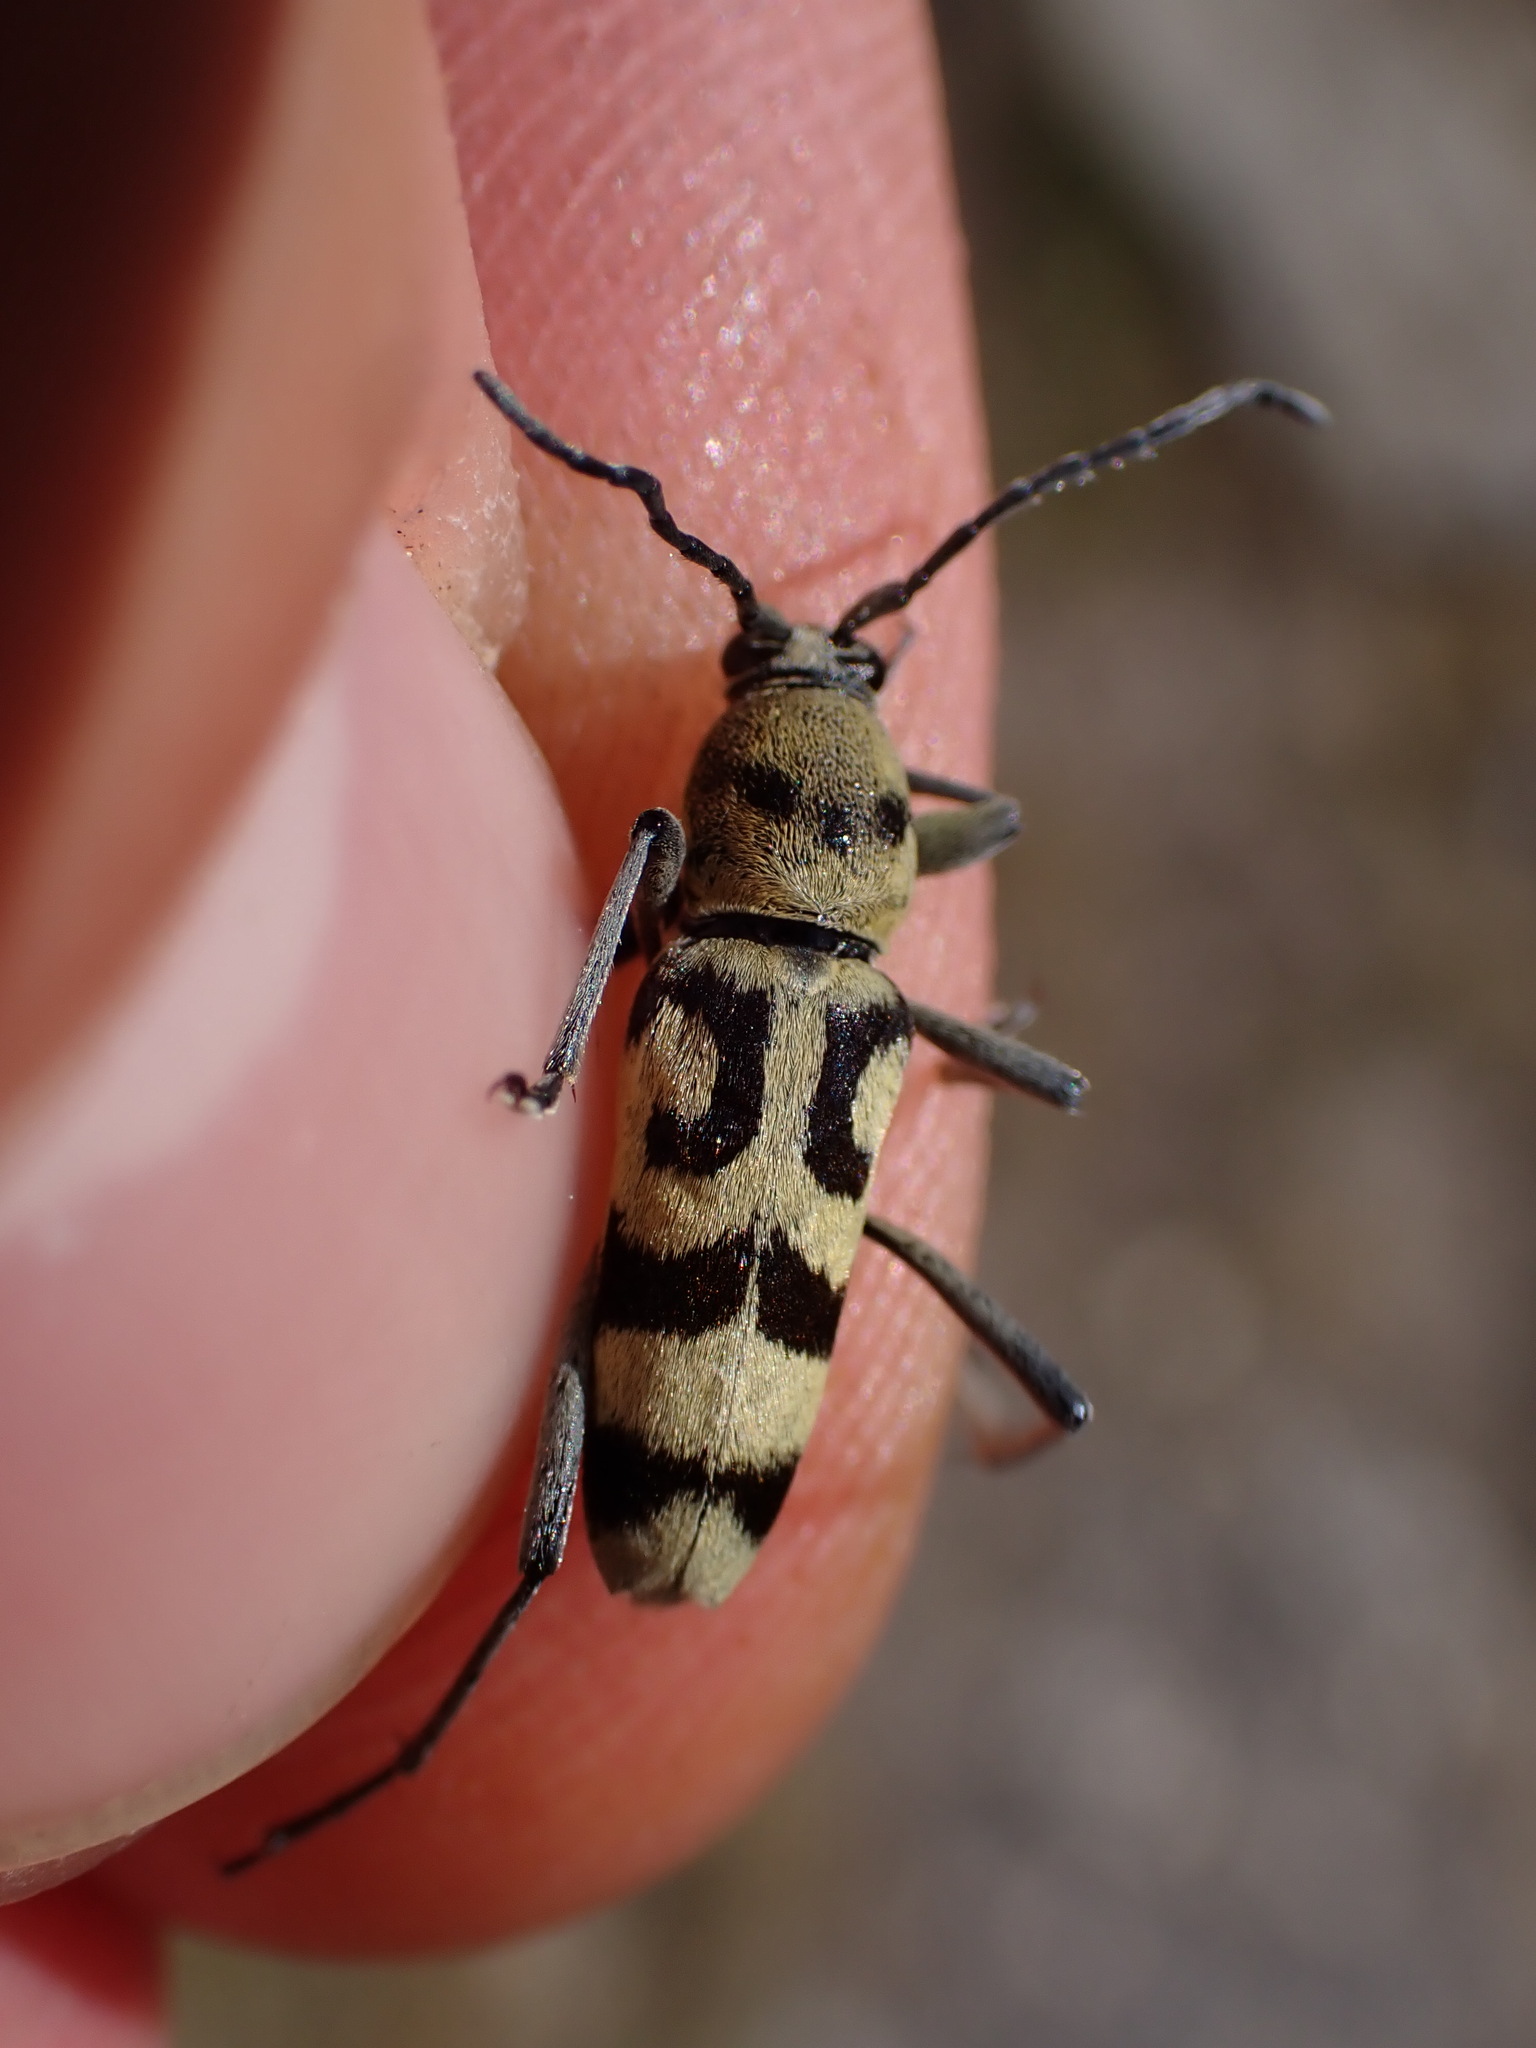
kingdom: Animalia
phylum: Arthropoda
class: Insecta
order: Coleoptera
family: Cerambycidae
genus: Chlorophorus
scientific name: Chlorophorus varius
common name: Grape wood borer
